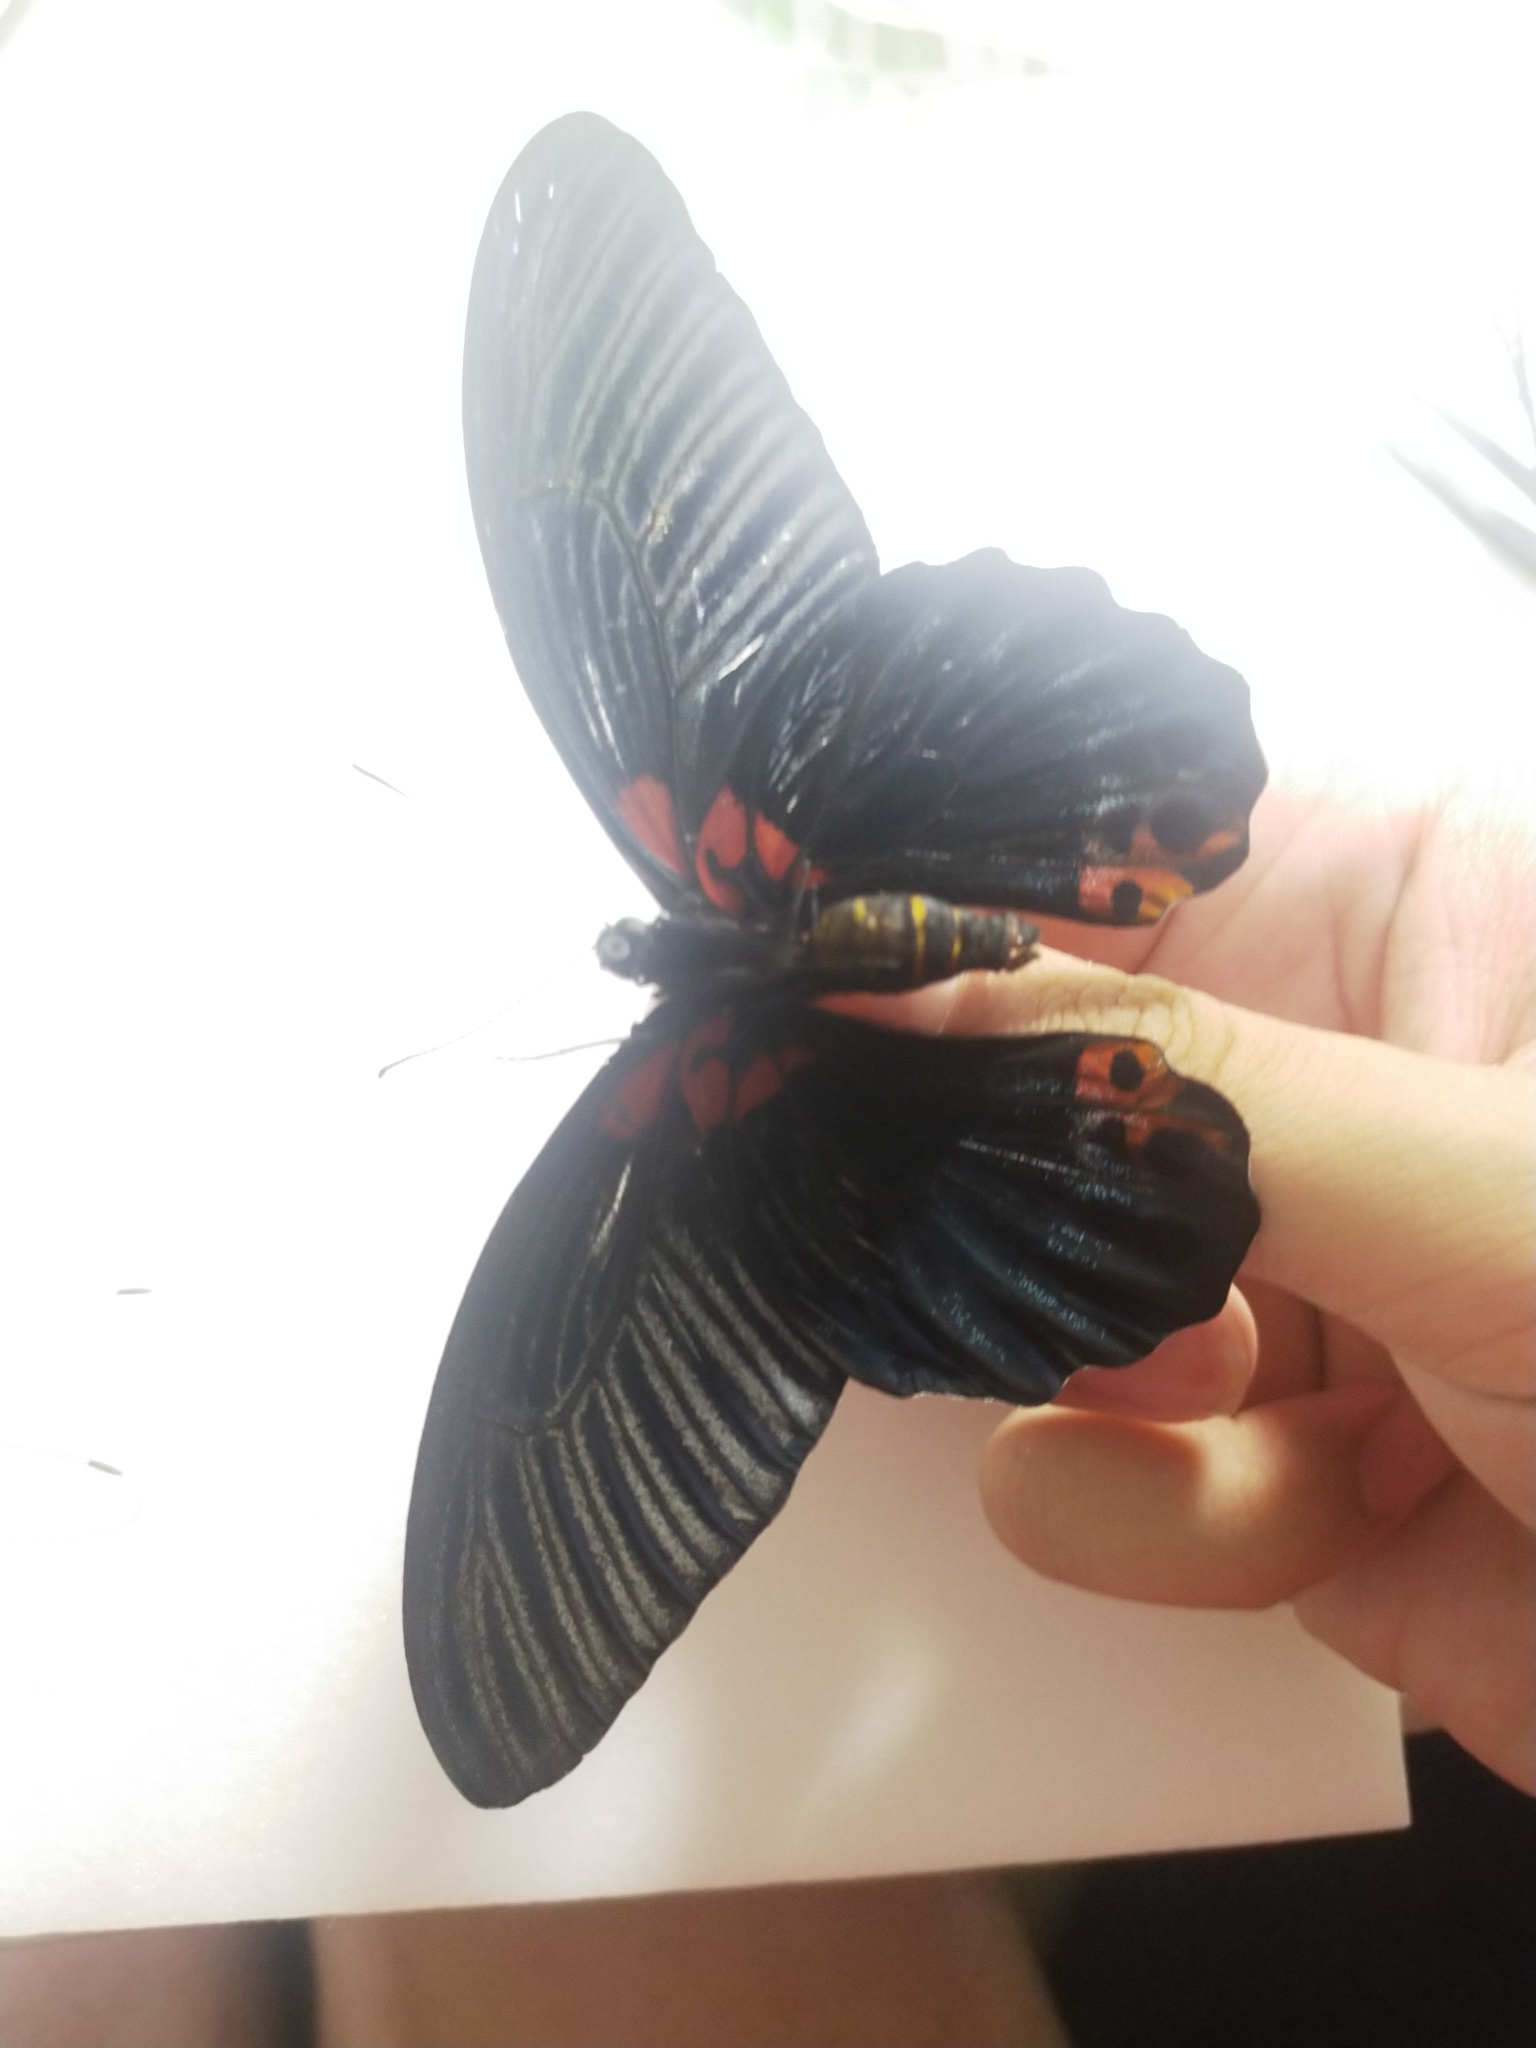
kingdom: Animalia
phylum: Arthropoda
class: Insecta
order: Lepidoptera
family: Papilionidae
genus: Papilio
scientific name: Papilio memnon
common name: Great mormon
